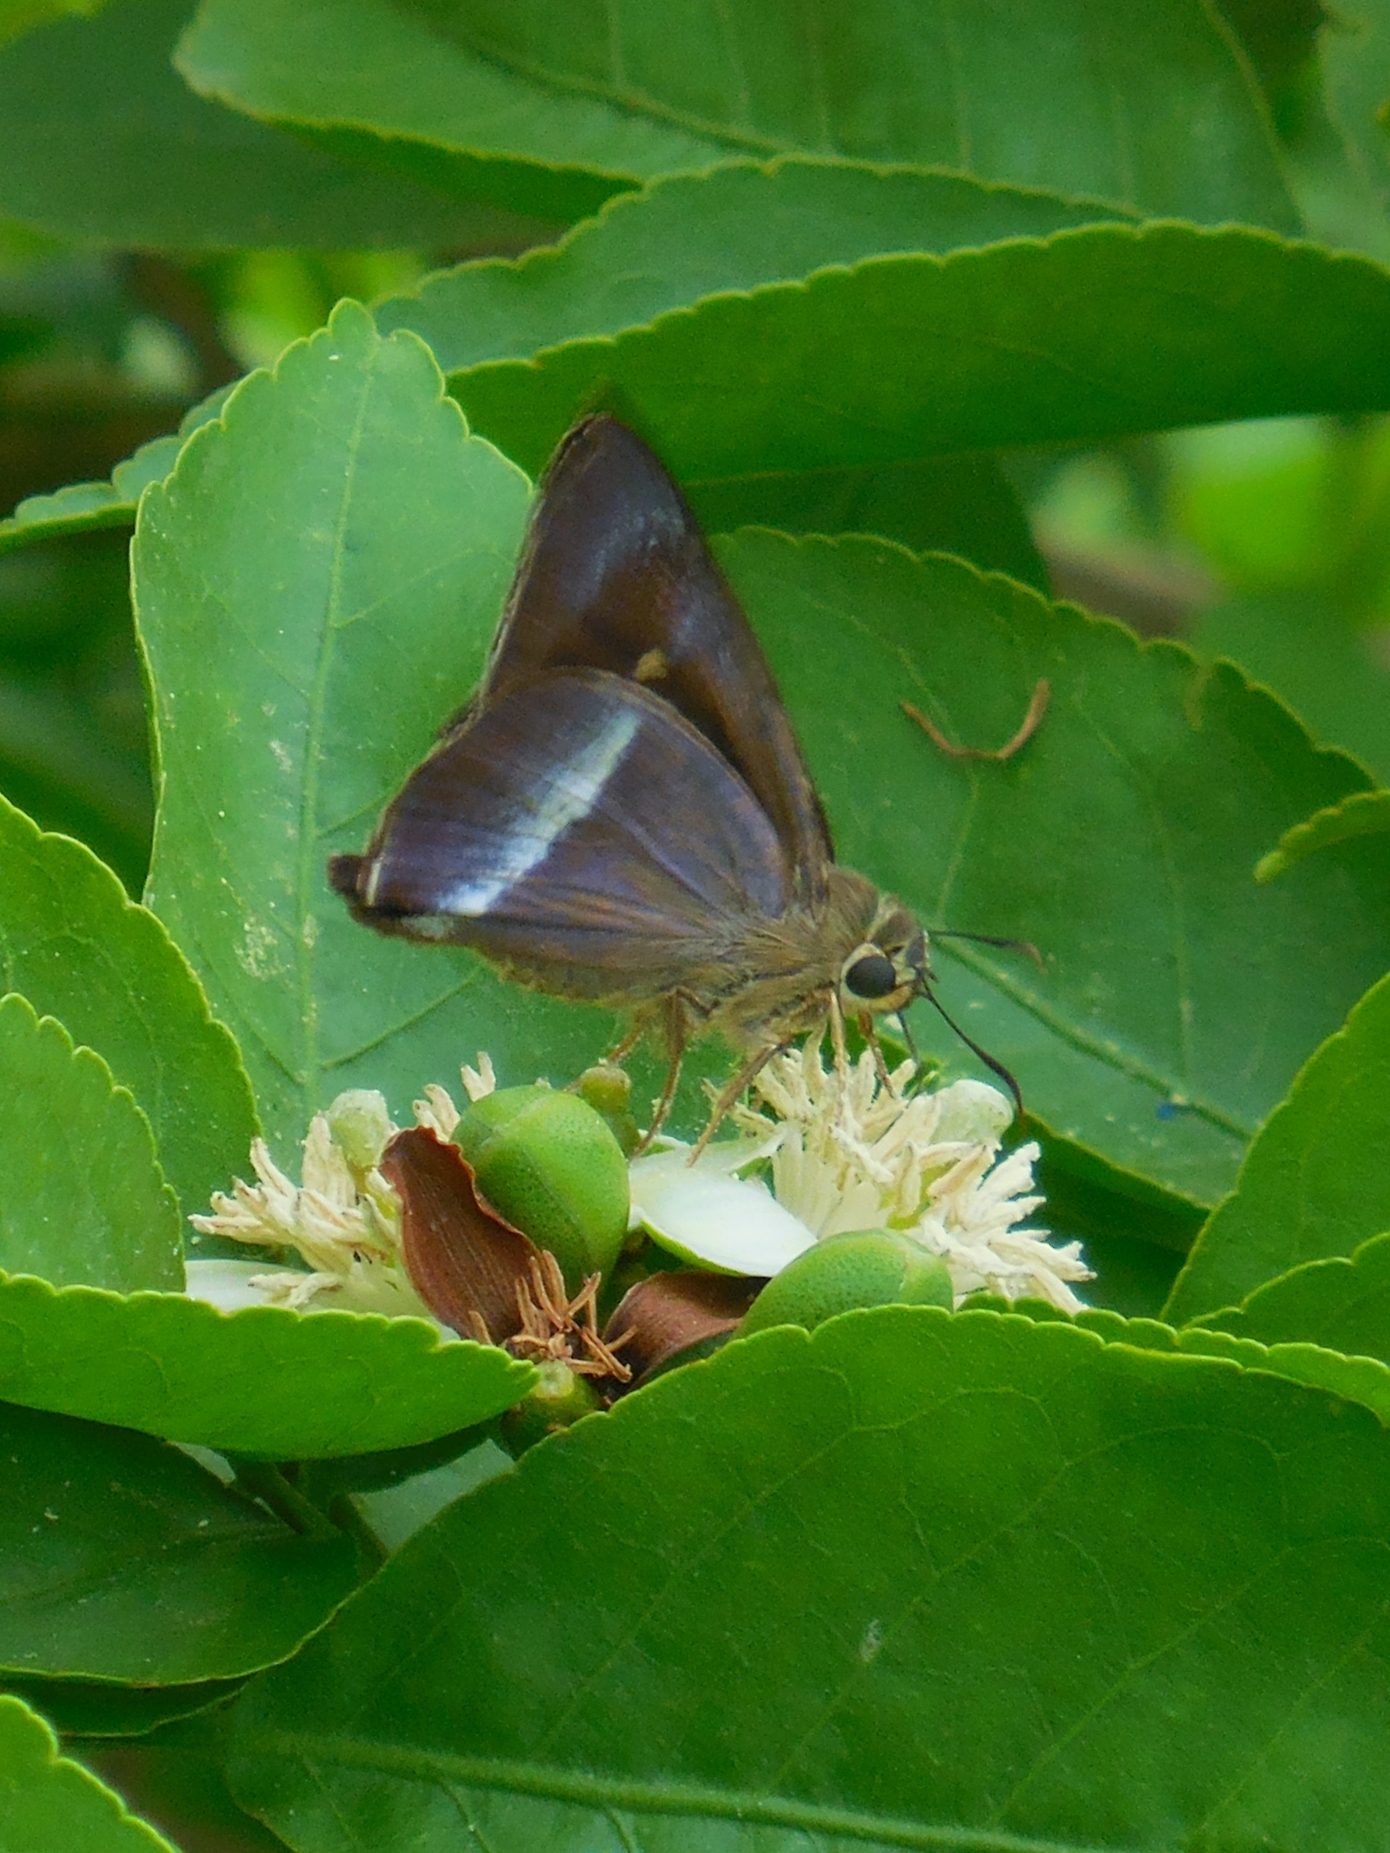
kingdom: Animalia
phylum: Arthropoda
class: Insecta
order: Lepidoptera
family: Hesperiidae
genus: Hasora
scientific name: Hasora taminatus
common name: White banded awl
